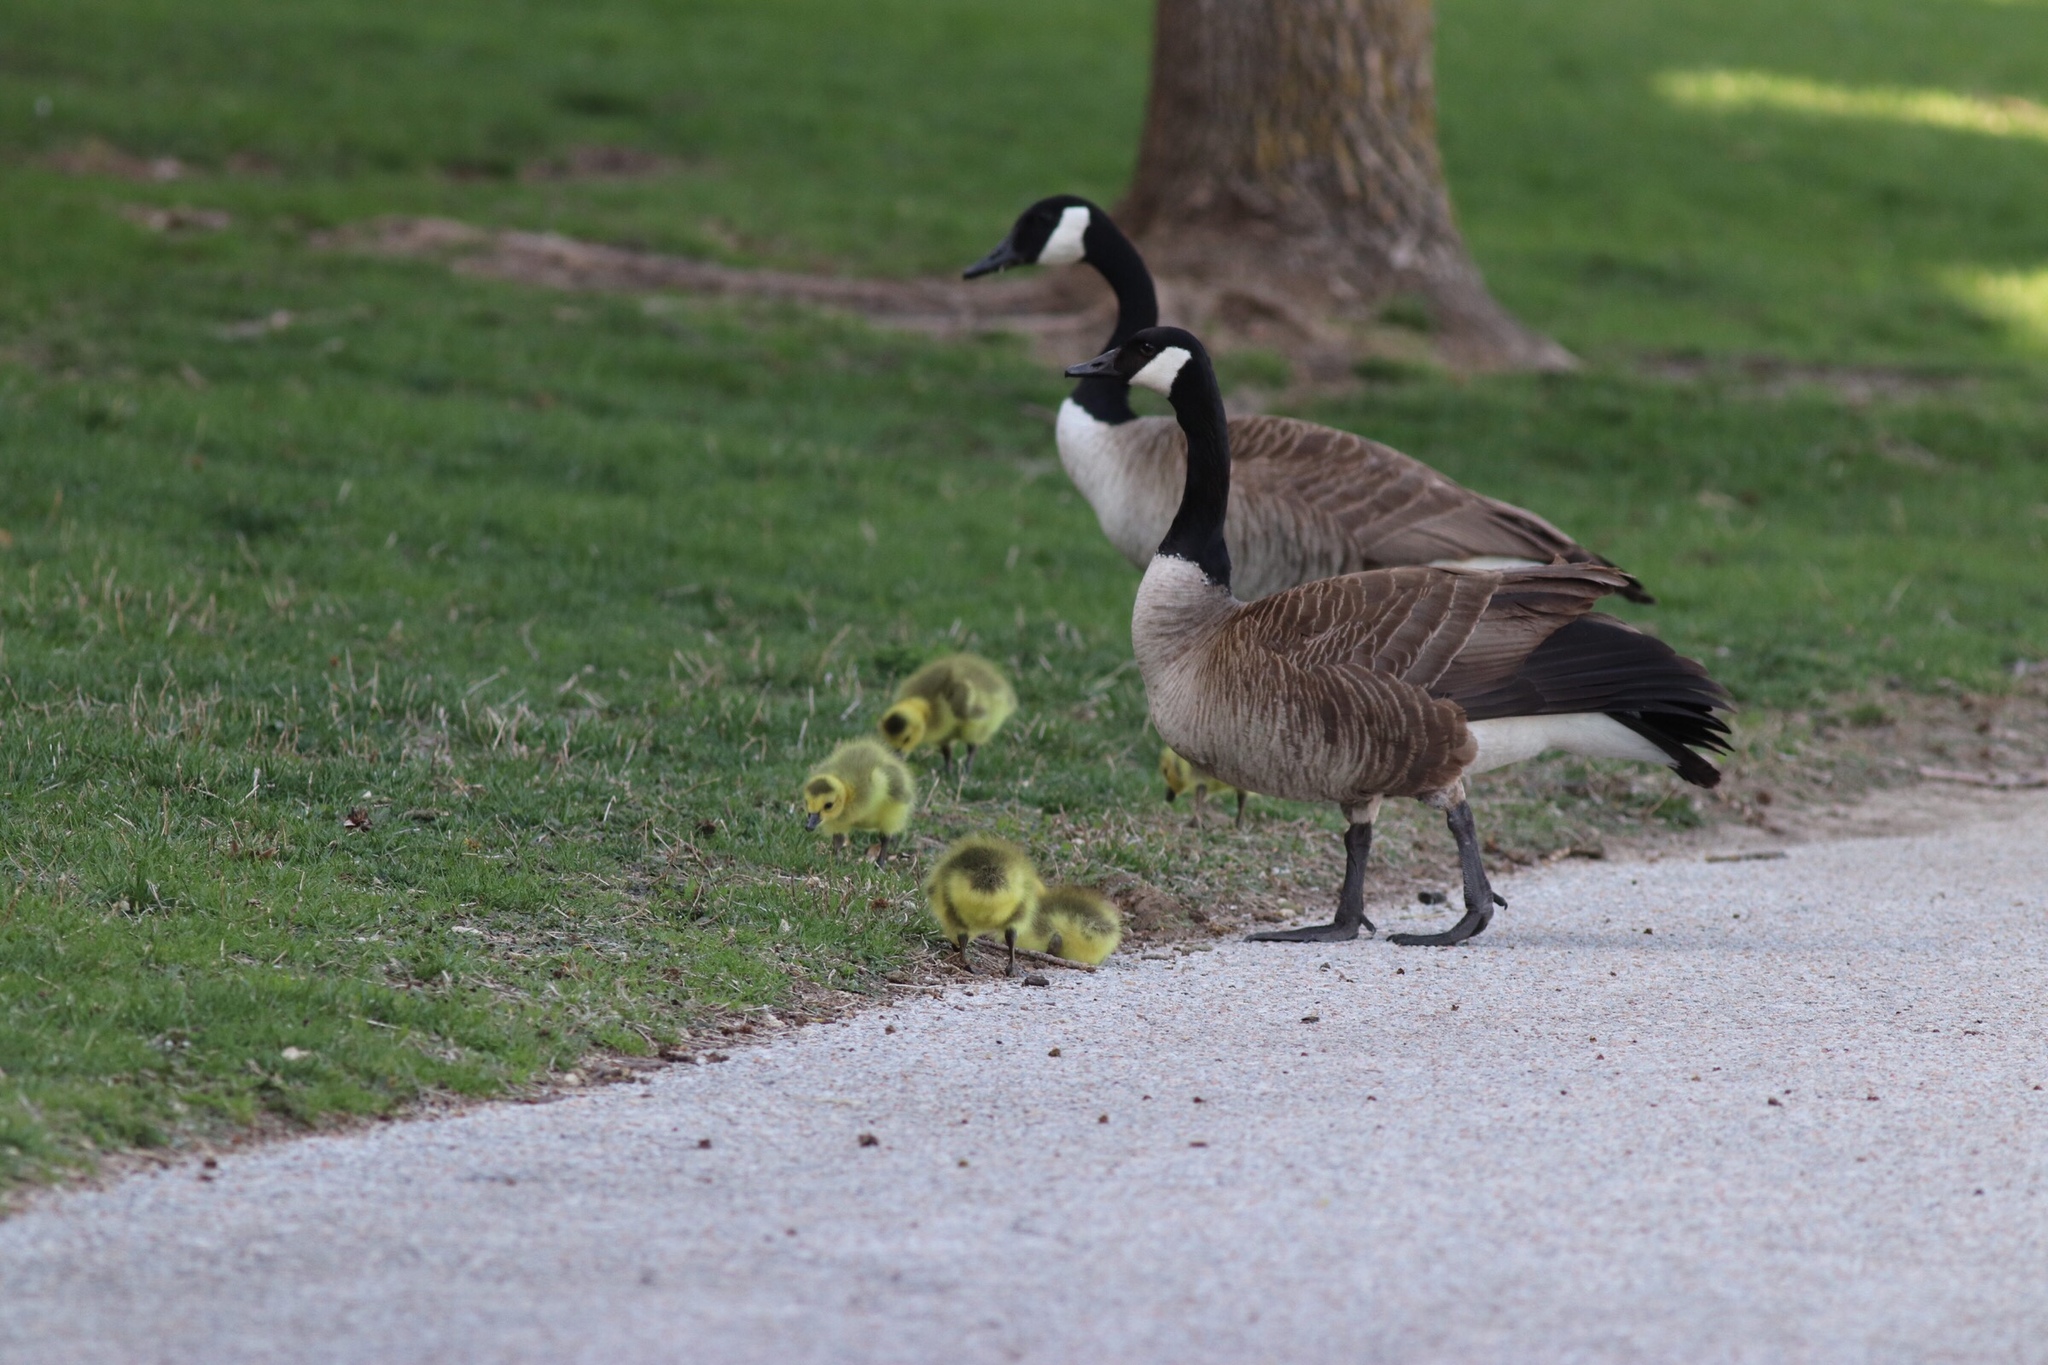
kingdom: Animalia
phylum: Chordata
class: Aves
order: Anseriformes
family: Anatidae
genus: Branta
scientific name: Branta canadensis
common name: Canada goose
